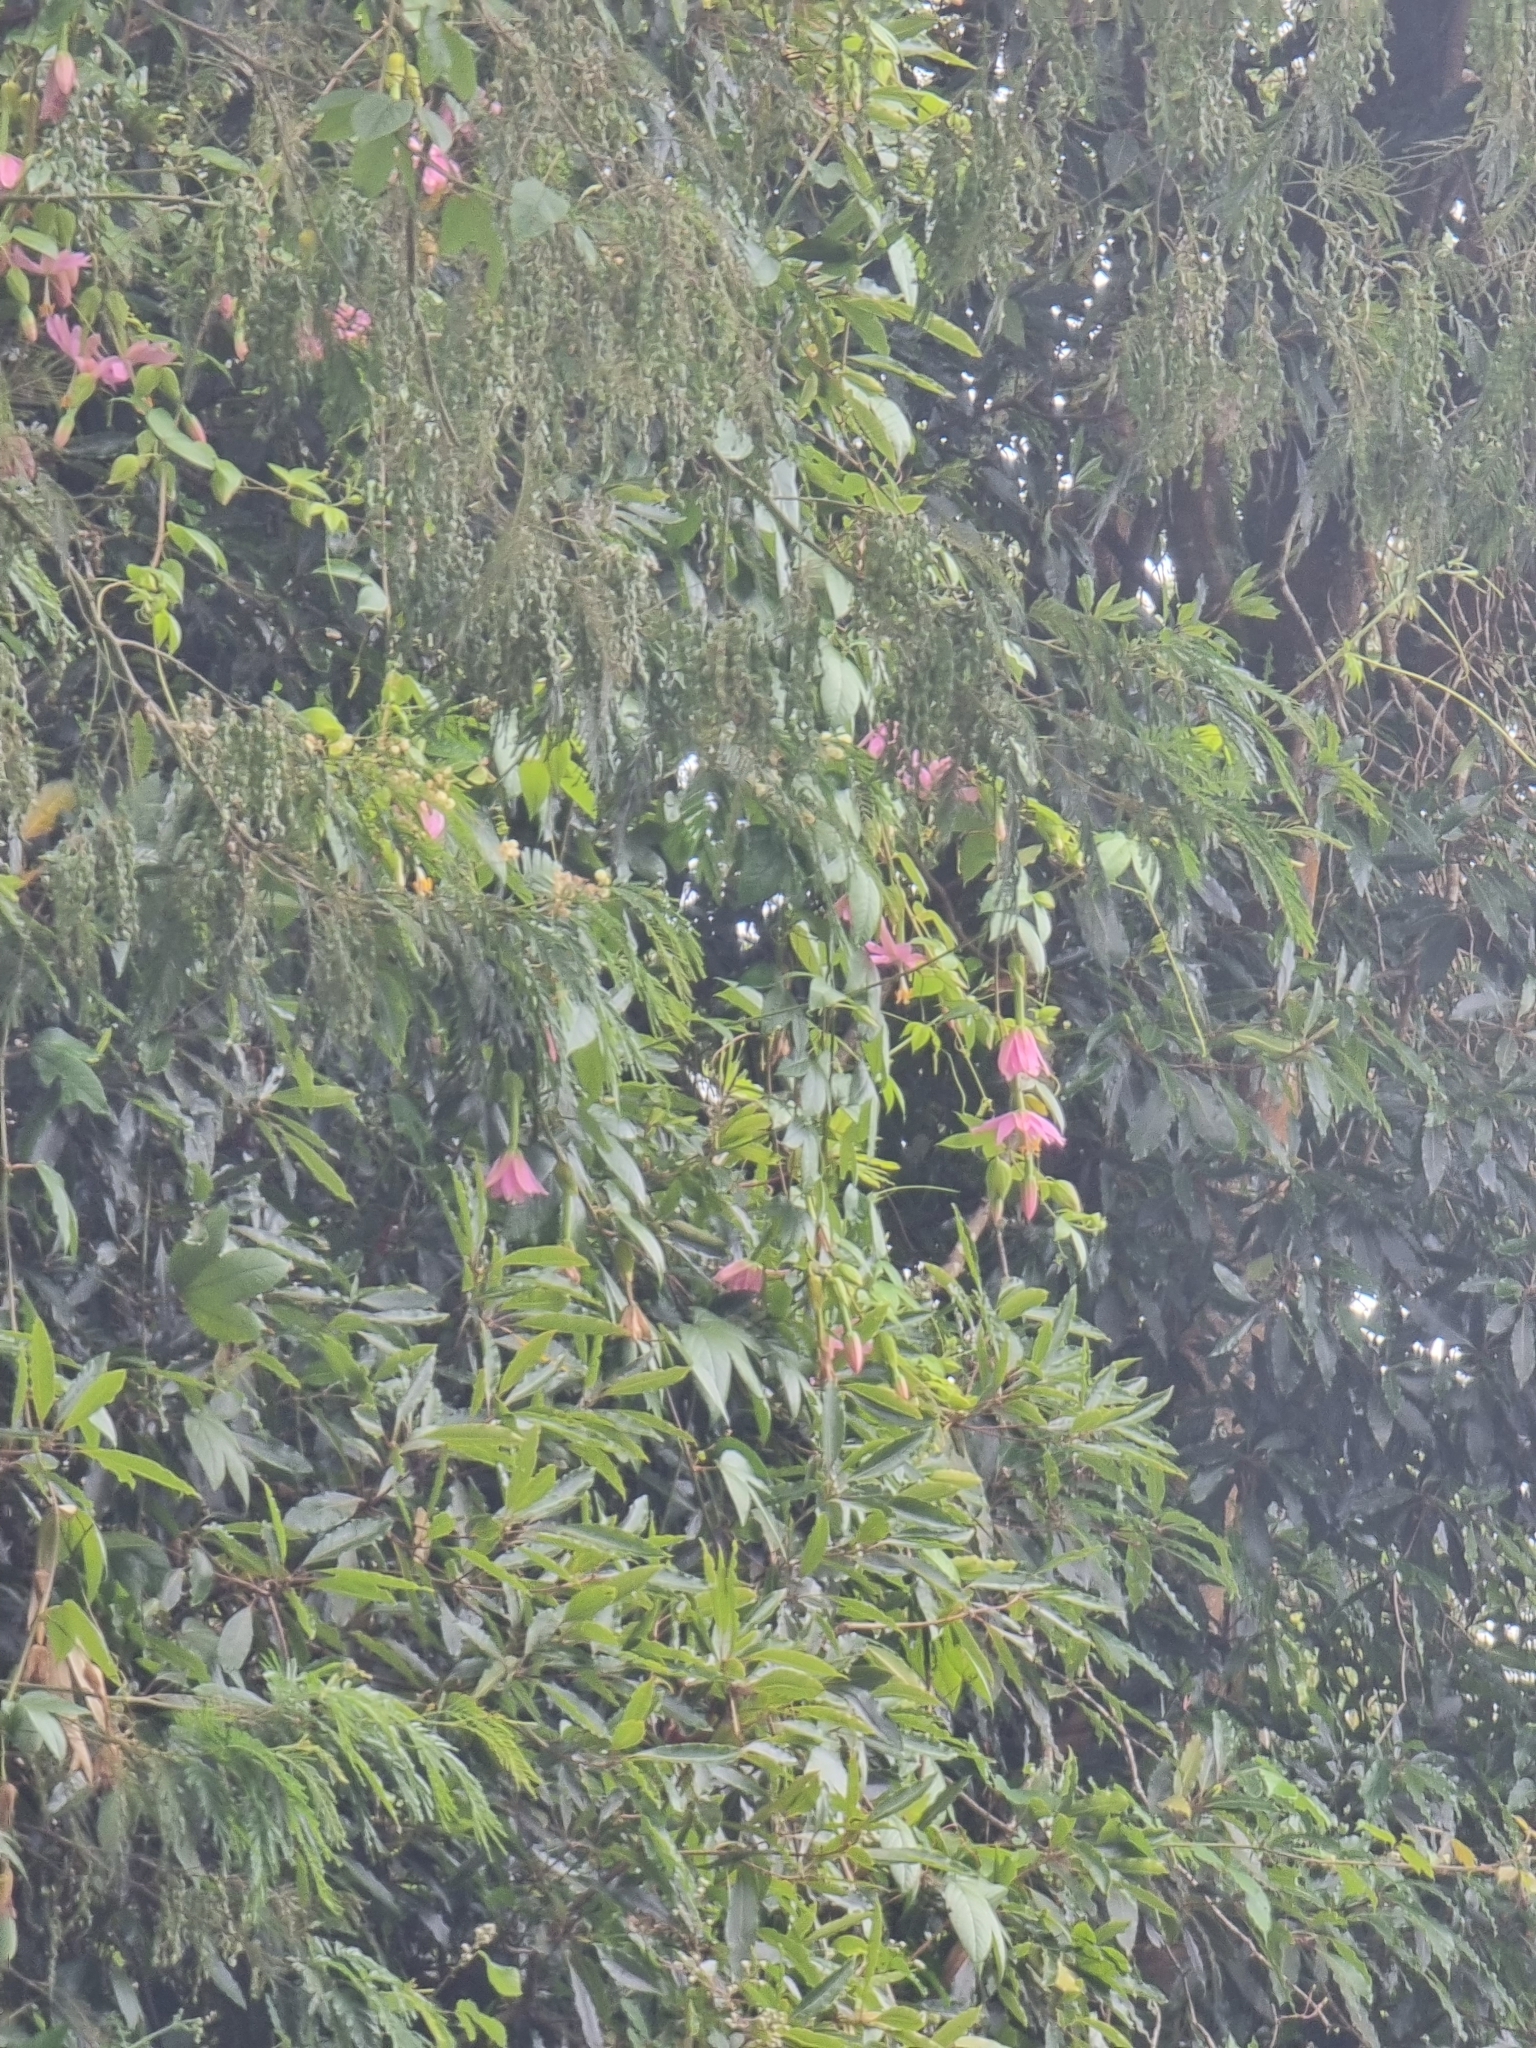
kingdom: Plantae
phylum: Tracheophyta
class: Magnoliopsida
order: Malpighiales
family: Passifloraceae
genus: Passiflora
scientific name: Passiflora tarminiana
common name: Banana poka
